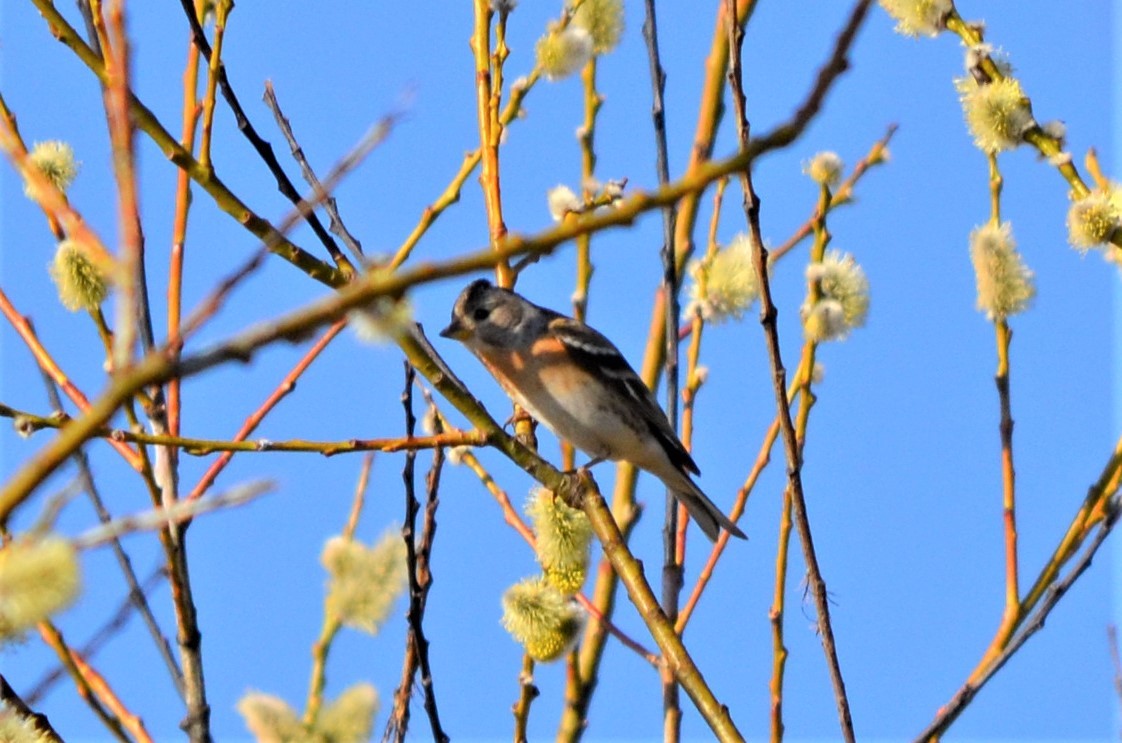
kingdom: Animalia
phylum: Chordata
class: Aves
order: Passeriformes
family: Fringillidae
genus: Fringilla
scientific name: Fringilla montifringilla
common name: Brambling
